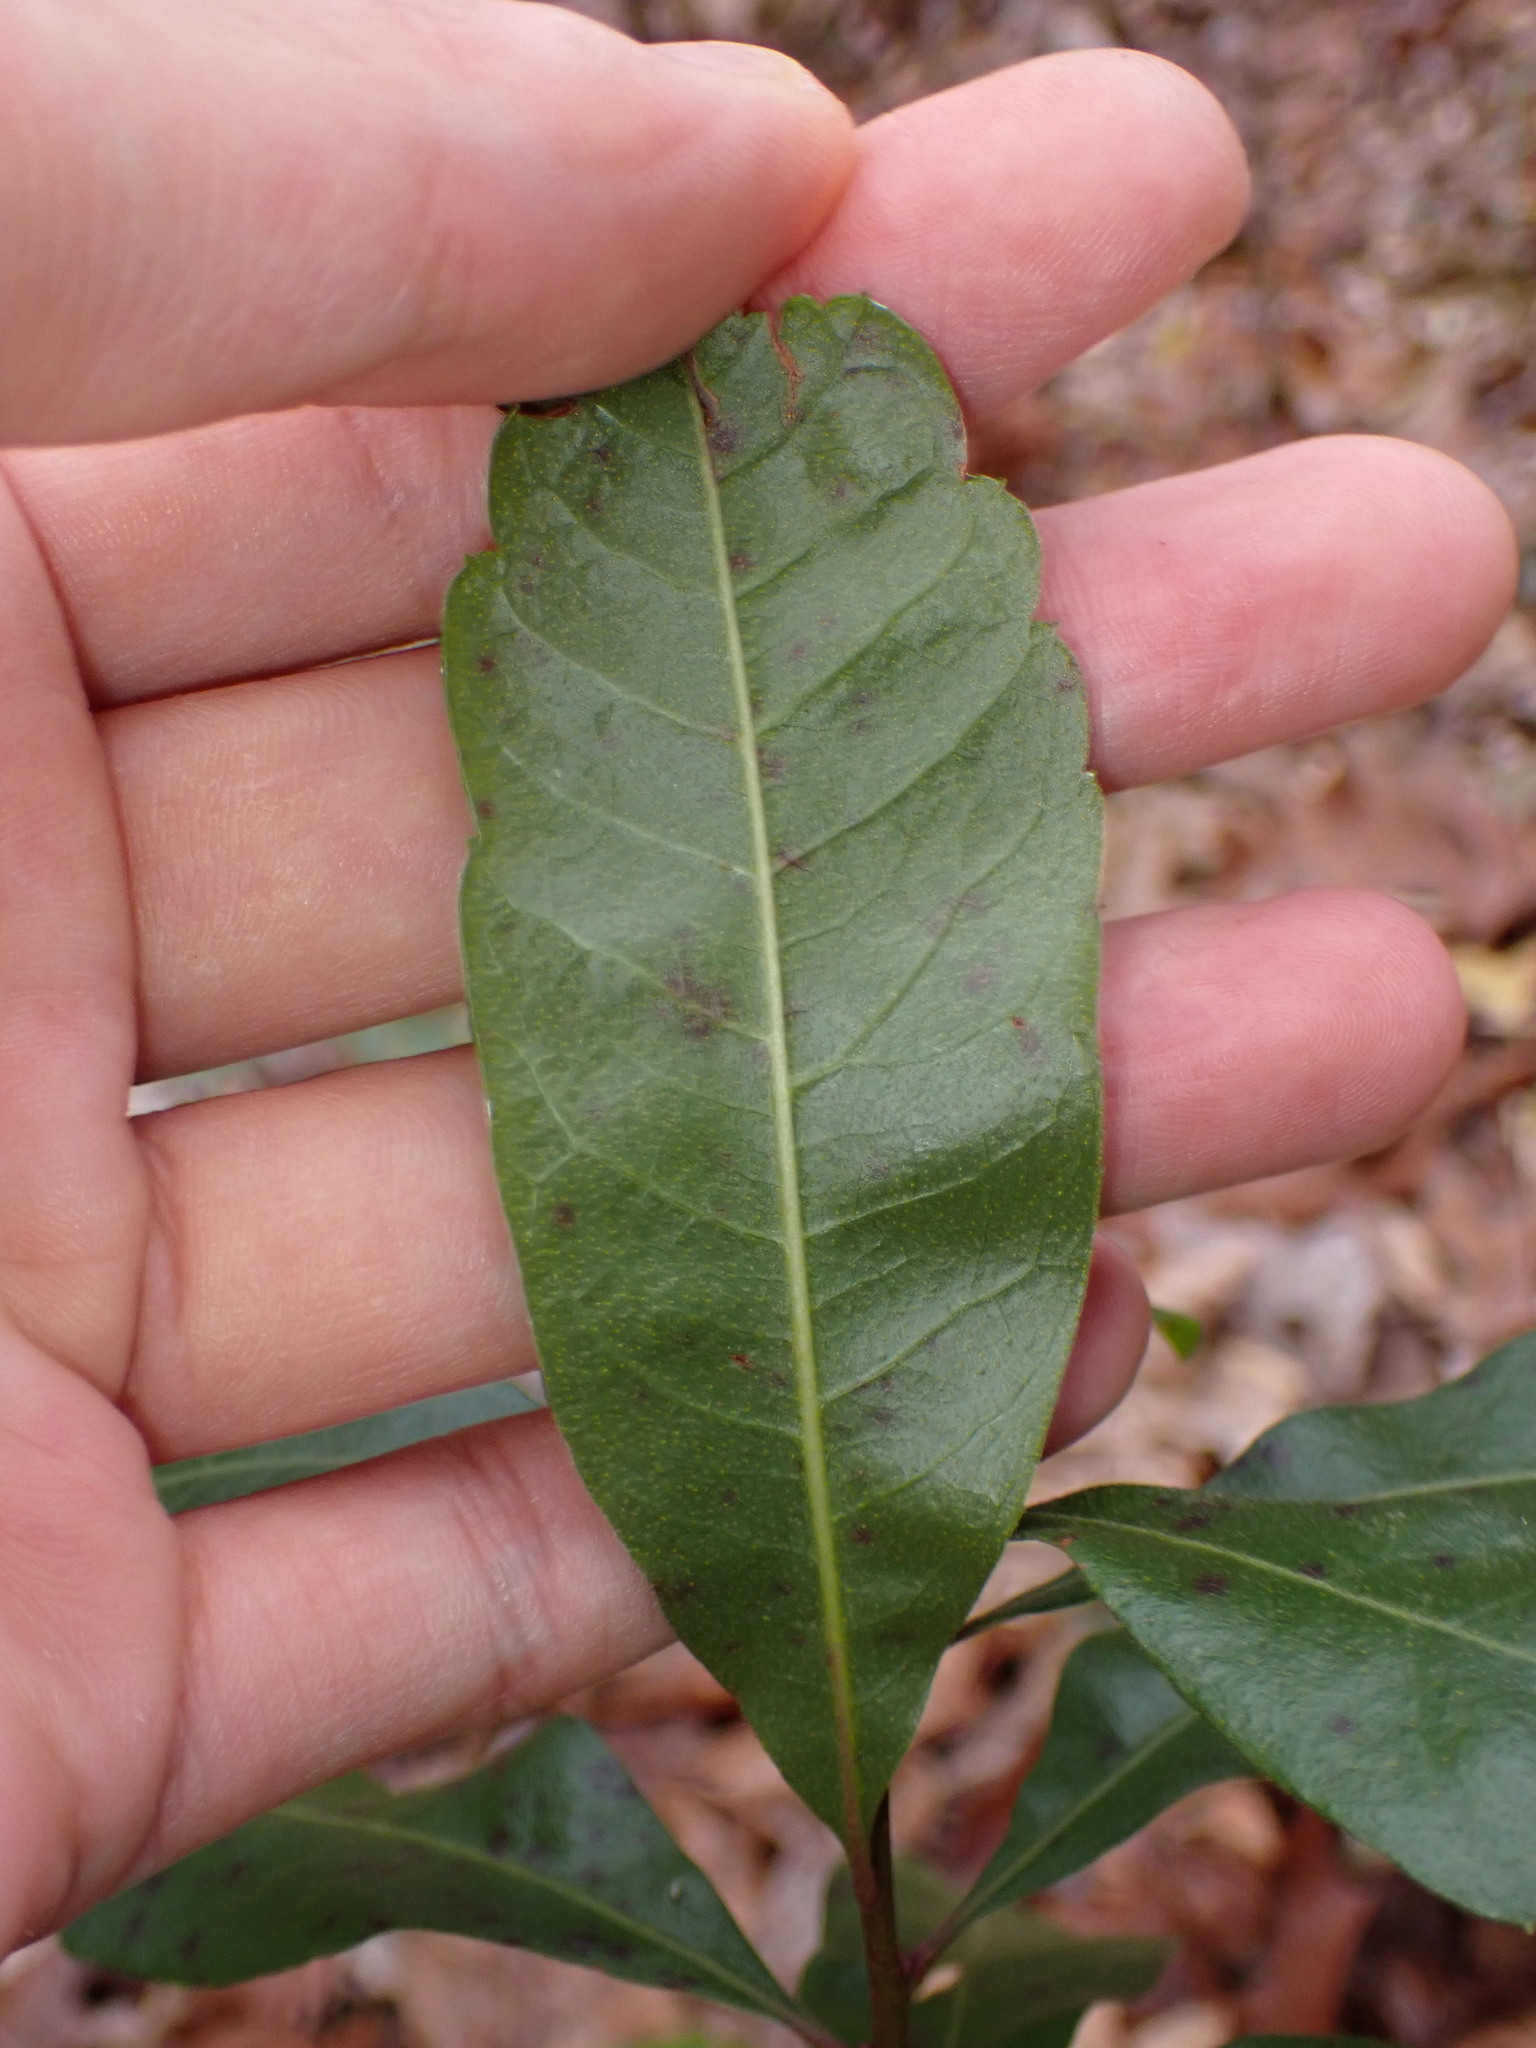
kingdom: Plantae
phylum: Tracheophyta
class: Magnoliopsida
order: Fagales
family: Myricaceae
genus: Morella
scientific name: Morella pensylvanica
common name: Northern bayberry
